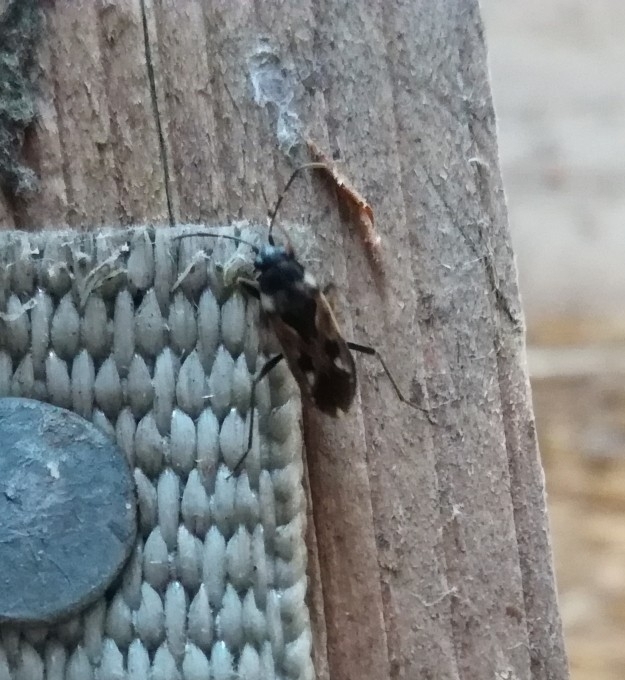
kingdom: Animalia
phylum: Arthropoda
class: Insecta
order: Hemiptera
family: Rhyparochromidae
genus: Rhyparochromus
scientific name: Rhyparochromus vulgaris
